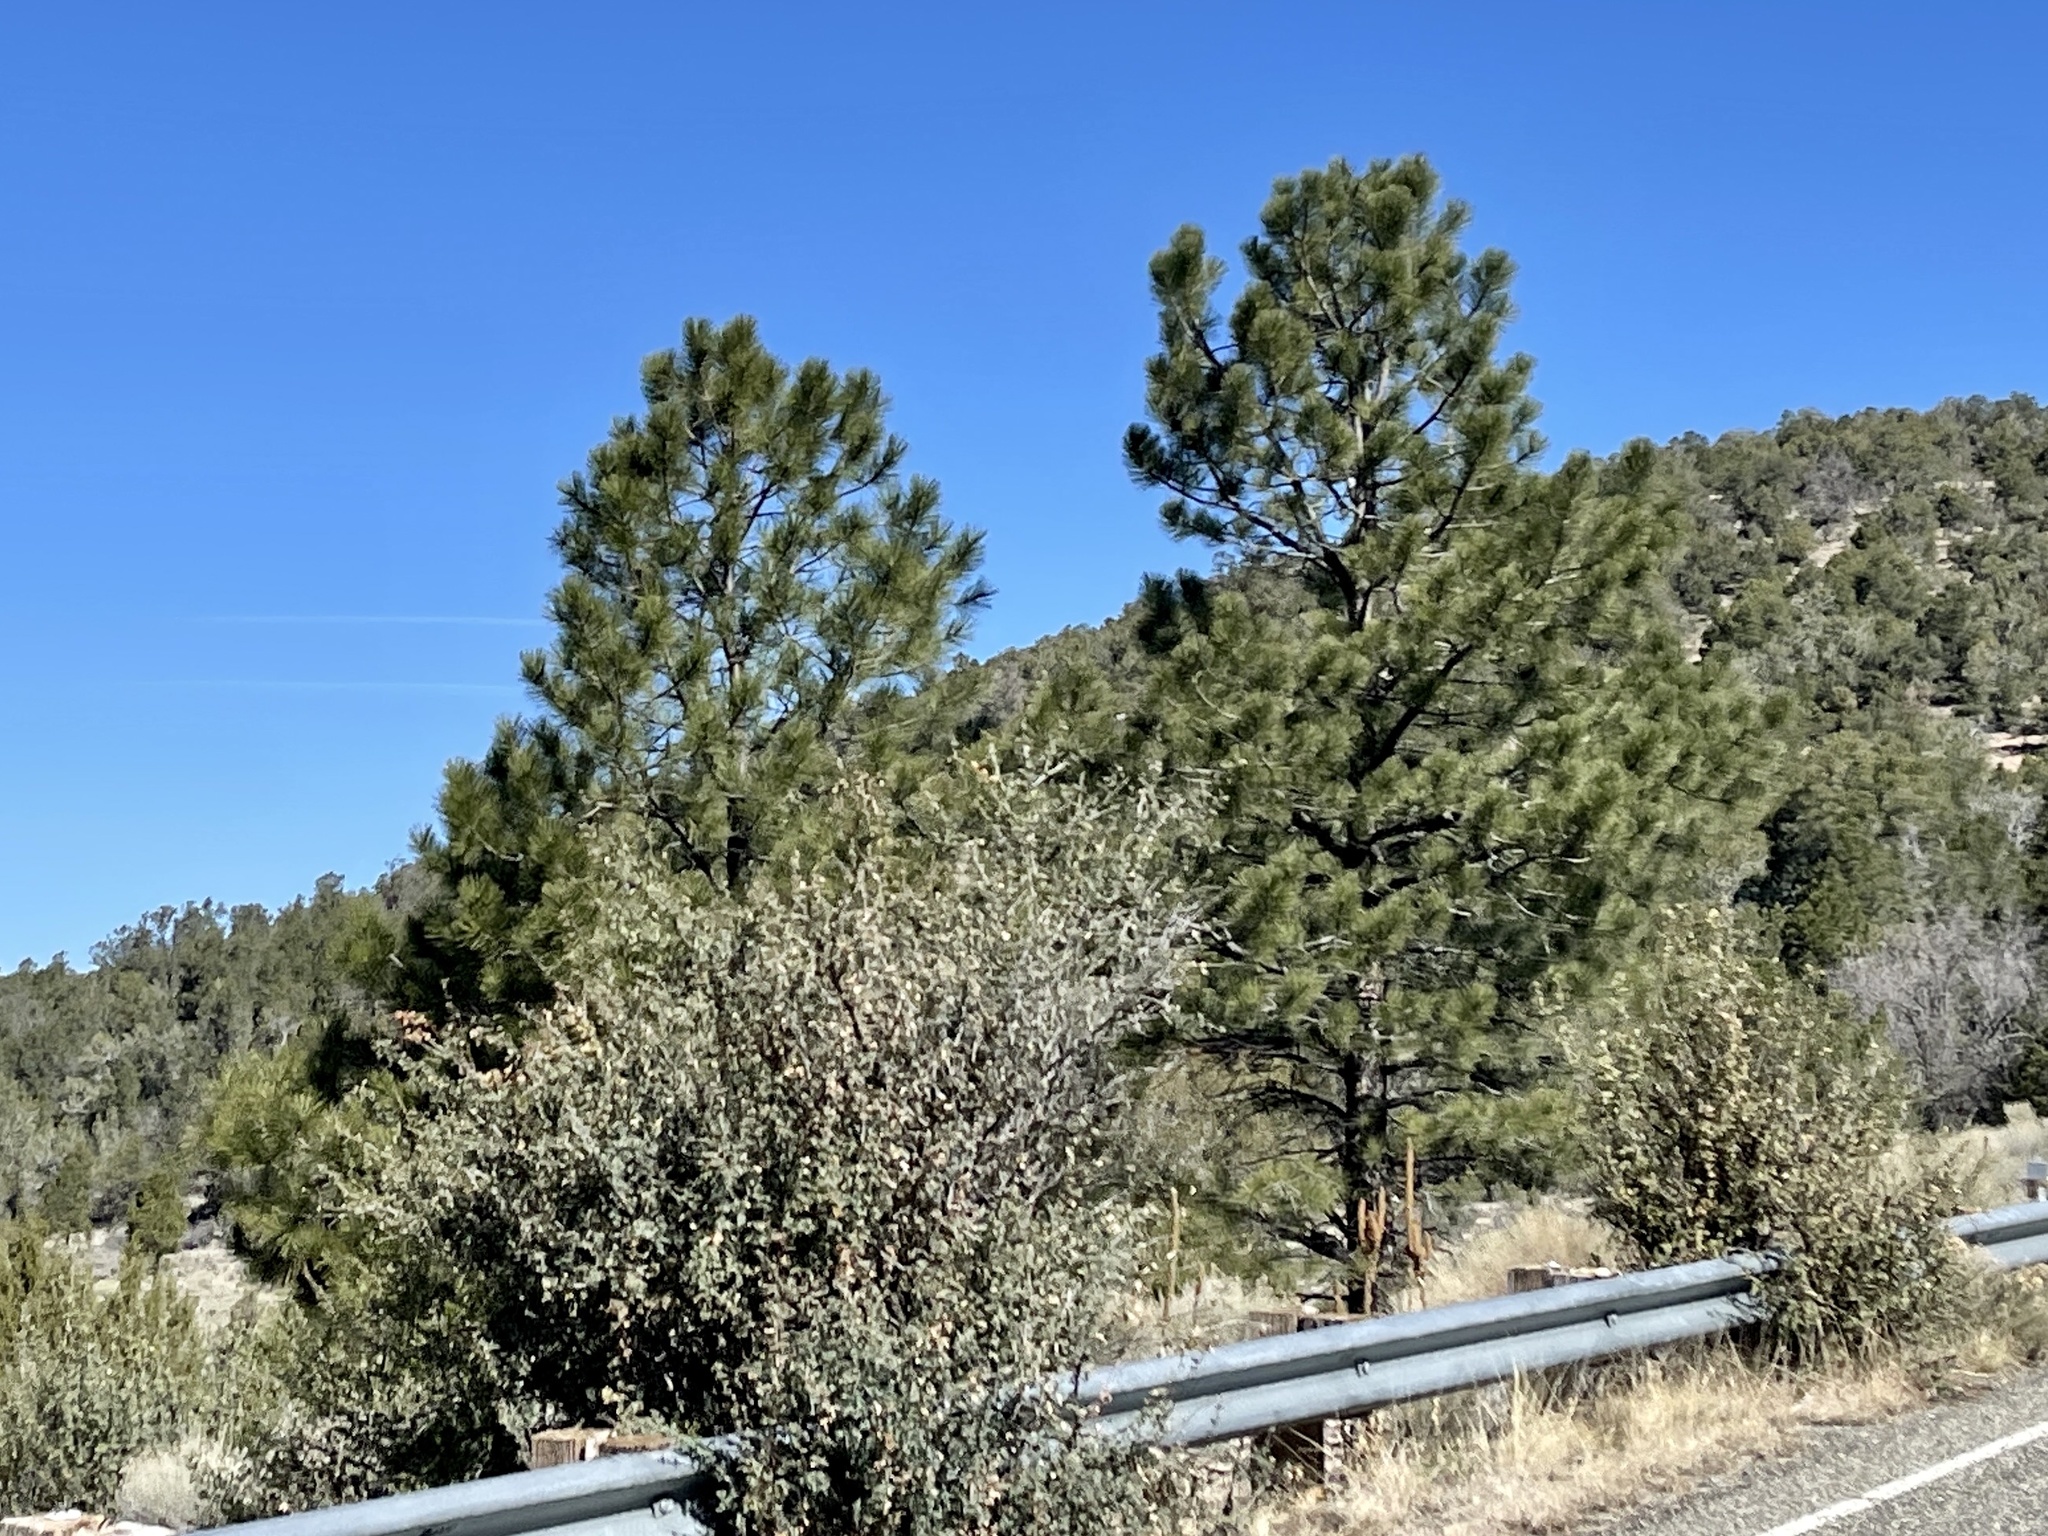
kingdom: Plantae
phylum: Tracheophyta
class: Pinopsida
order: Pinales
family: Pinaceae
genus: Pinus
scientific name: Pinus ponderosa
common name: Western yellow-pine
